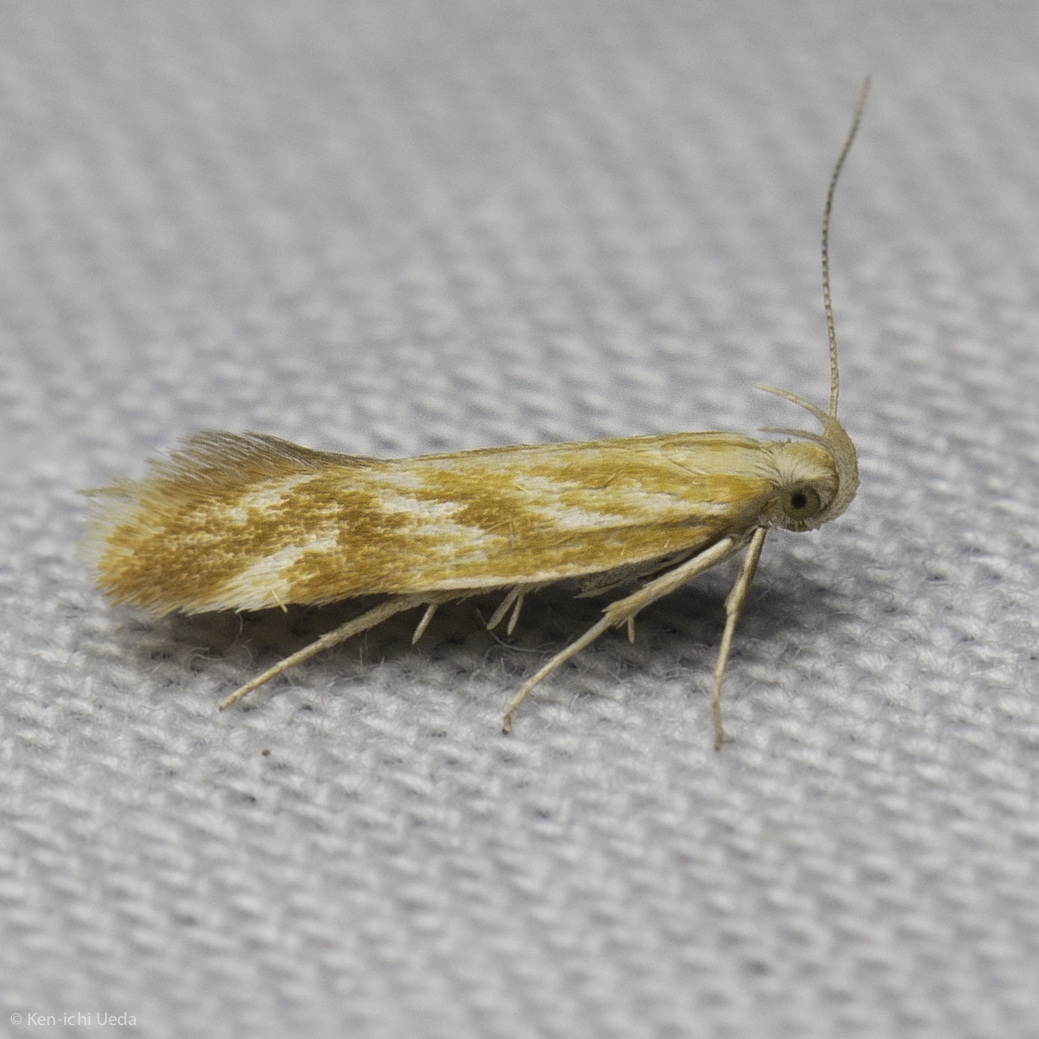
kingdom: Animalia
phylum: Arthropoda
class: Insecta
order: Lepidoptera
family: Gelechiidae
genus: Mirificarma
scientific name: Mirificarma eburnella
